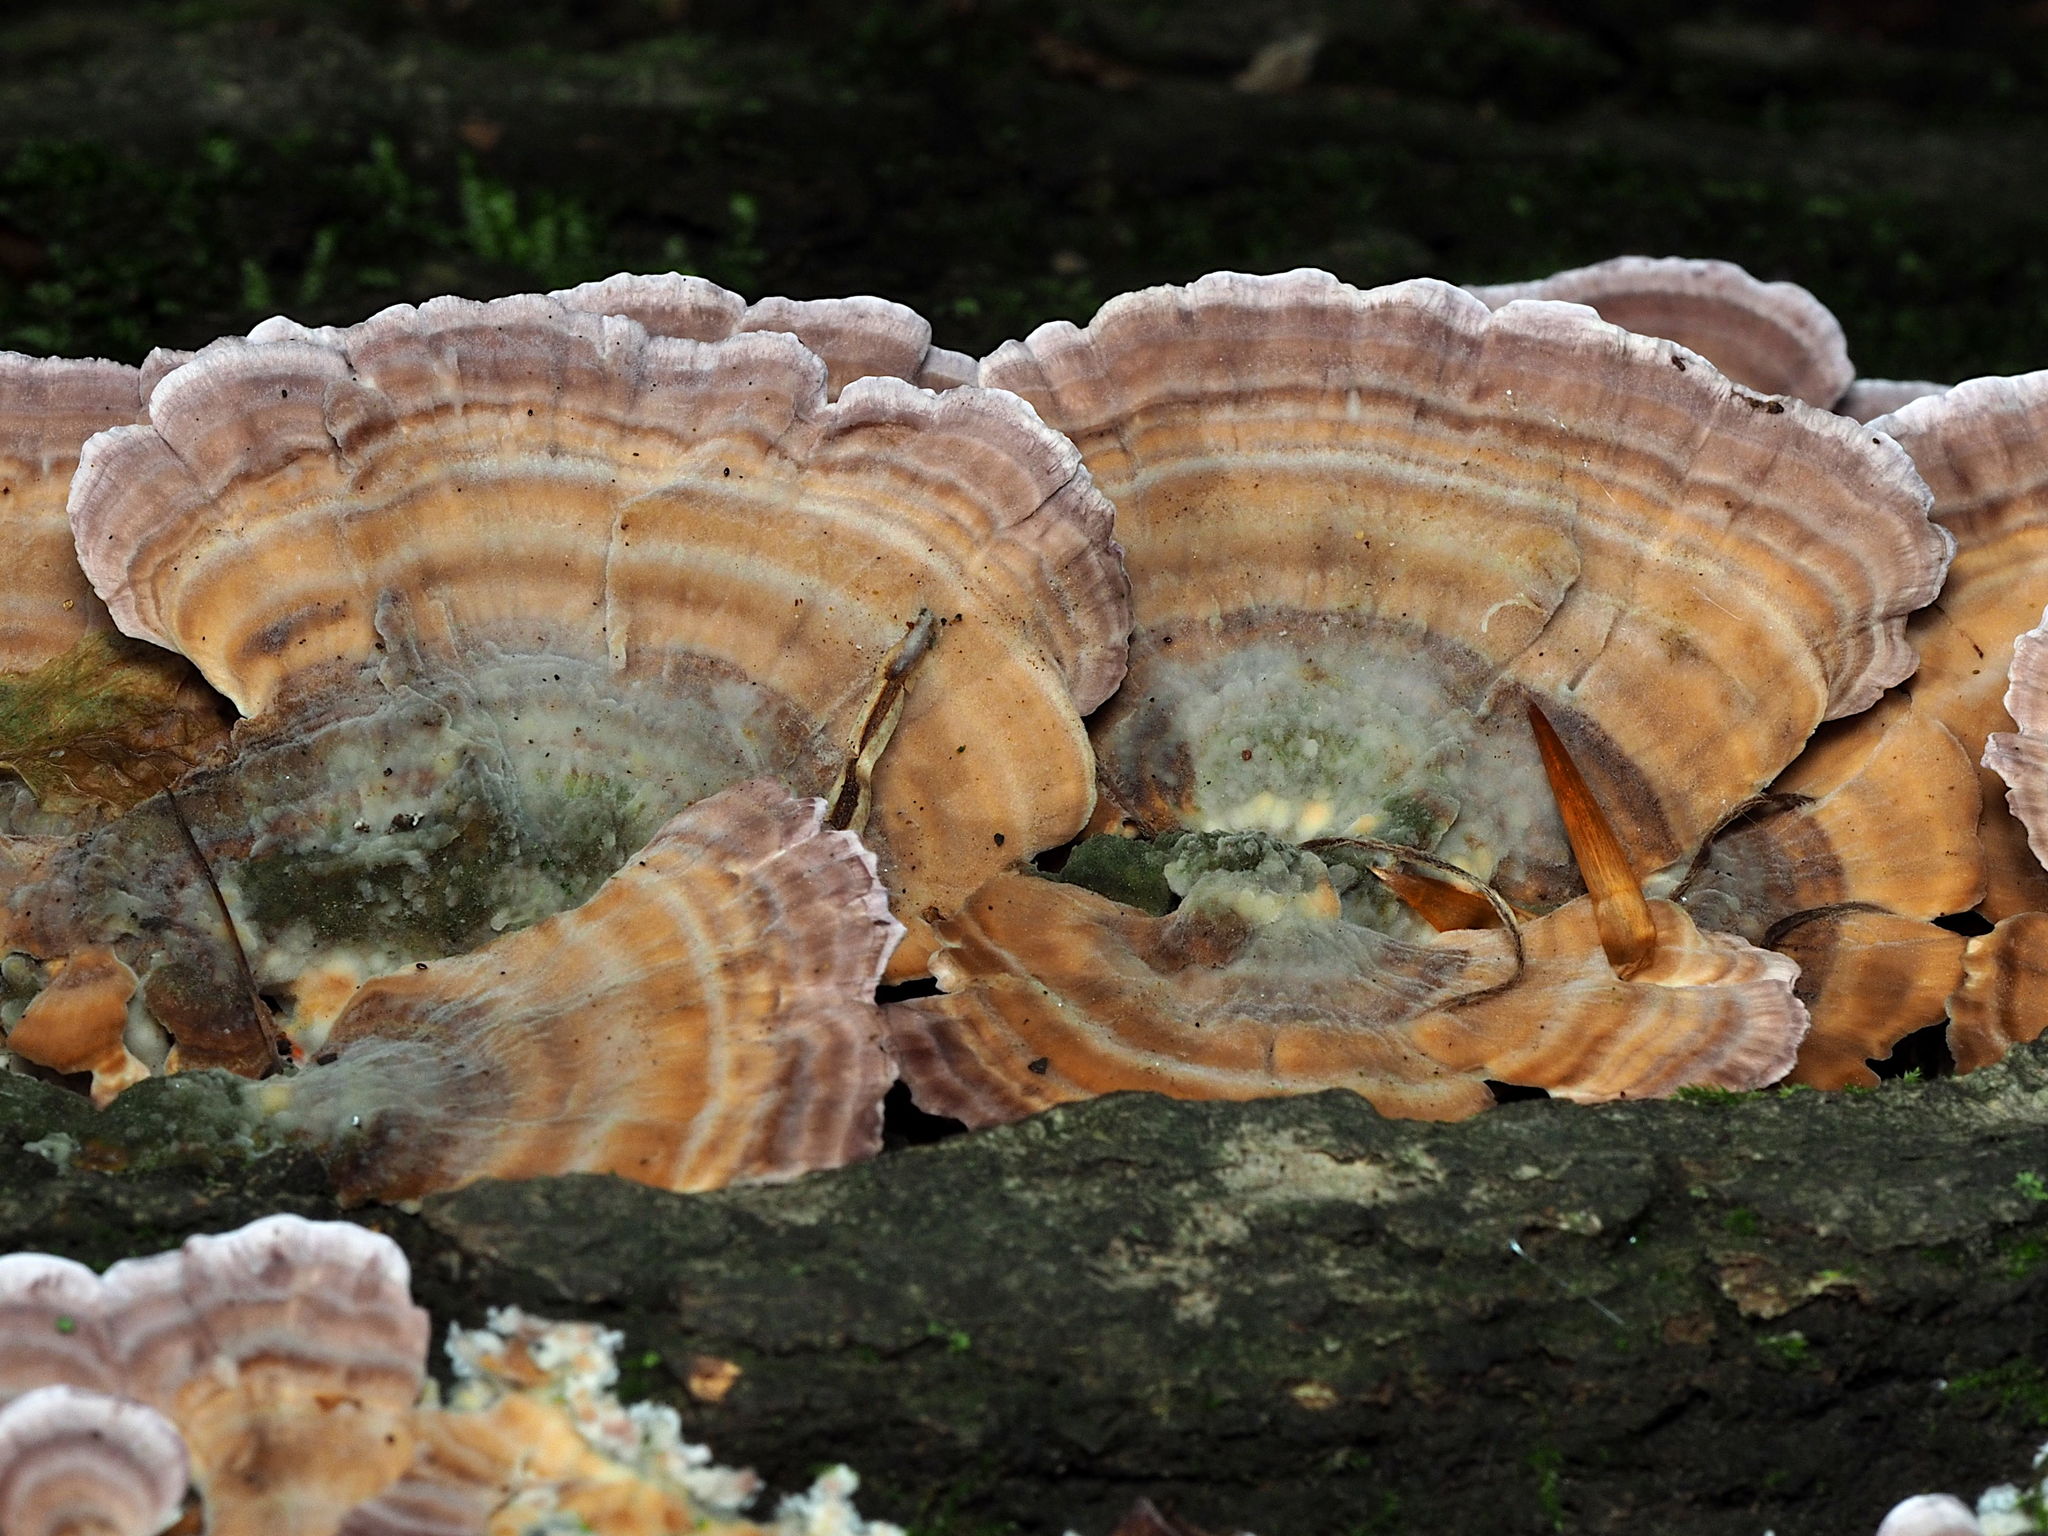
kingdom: Fungi
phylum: Basidiomycota
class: Agaricomycetes
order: Hymenochaetales
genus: Trichaptum
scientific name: Trichaptum biforme
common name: Violet-toothed polypore
